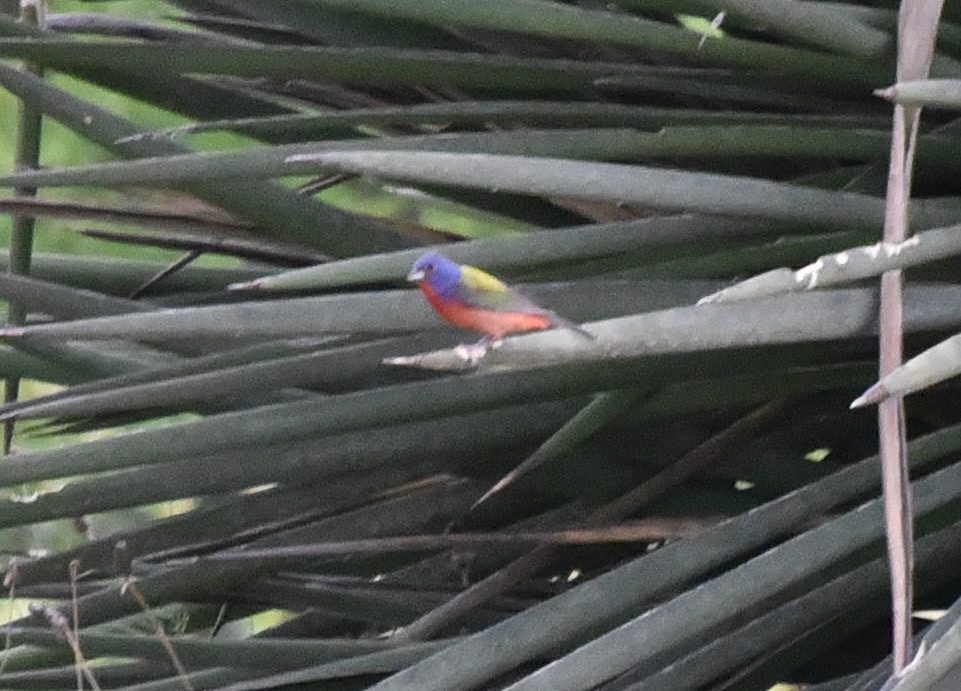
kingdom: Animalia
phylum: Chordata
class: Aves
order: Passeriformes
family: Cardinalidae
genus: Passerina
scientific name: Passerina ciris
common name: Painted bunting
